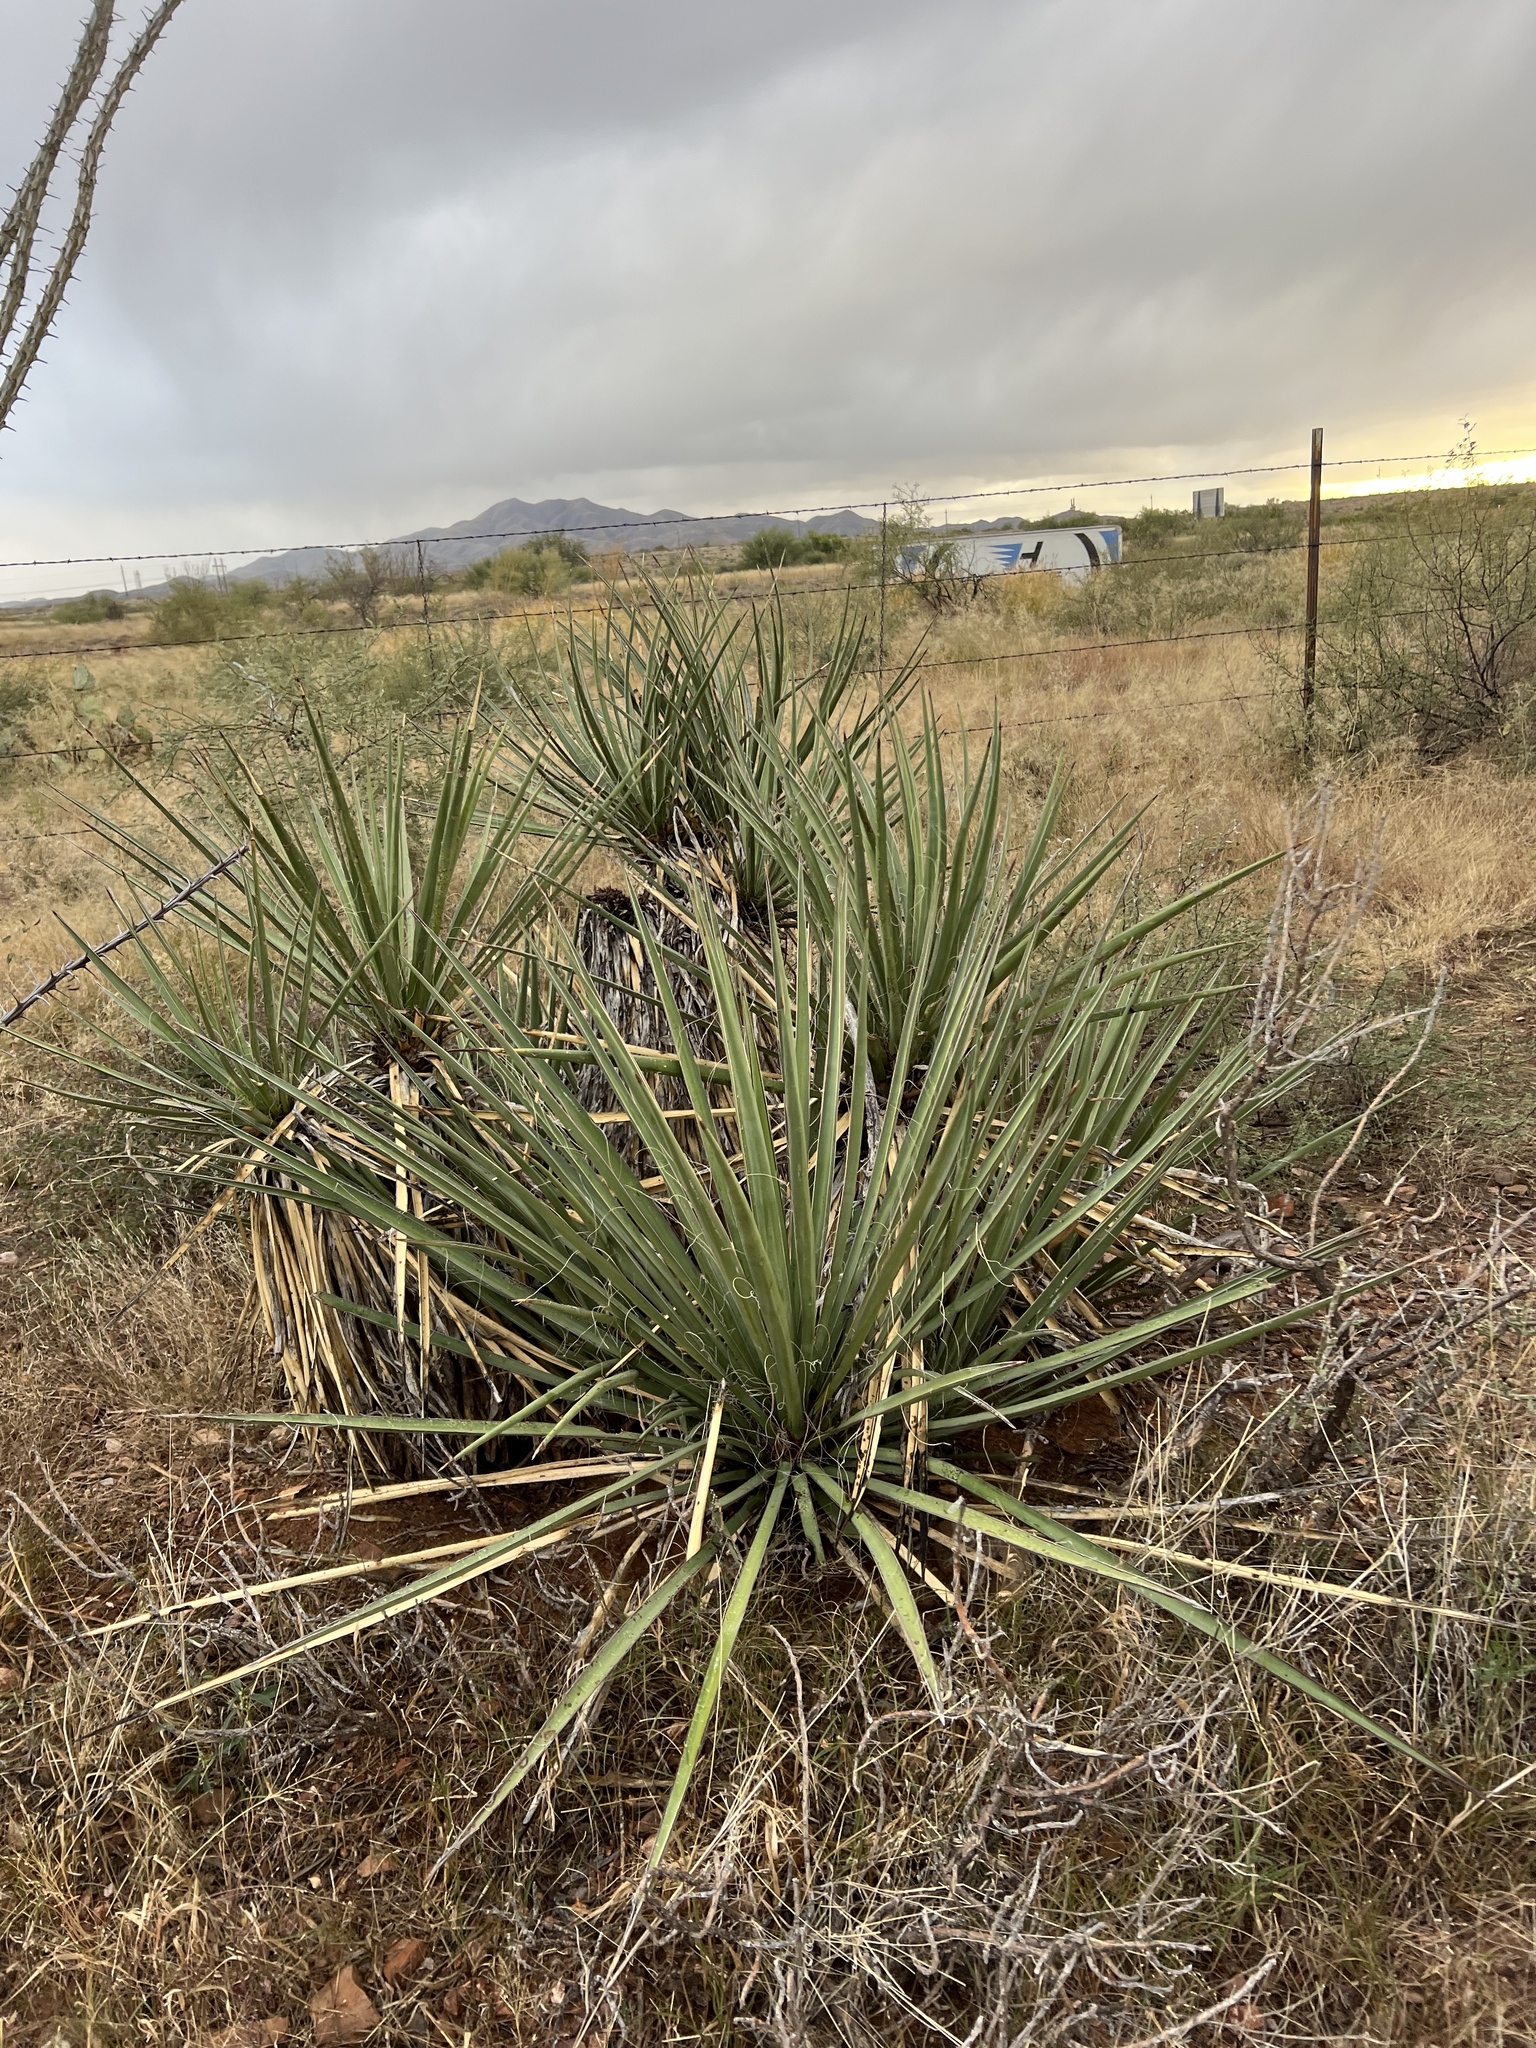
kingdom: Plantae
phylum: Tracheophyta
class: Liliopsida
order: Asparagales
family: Asparagaceae
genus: Yucca
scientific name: Yucca baccata
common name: Banana yucca
